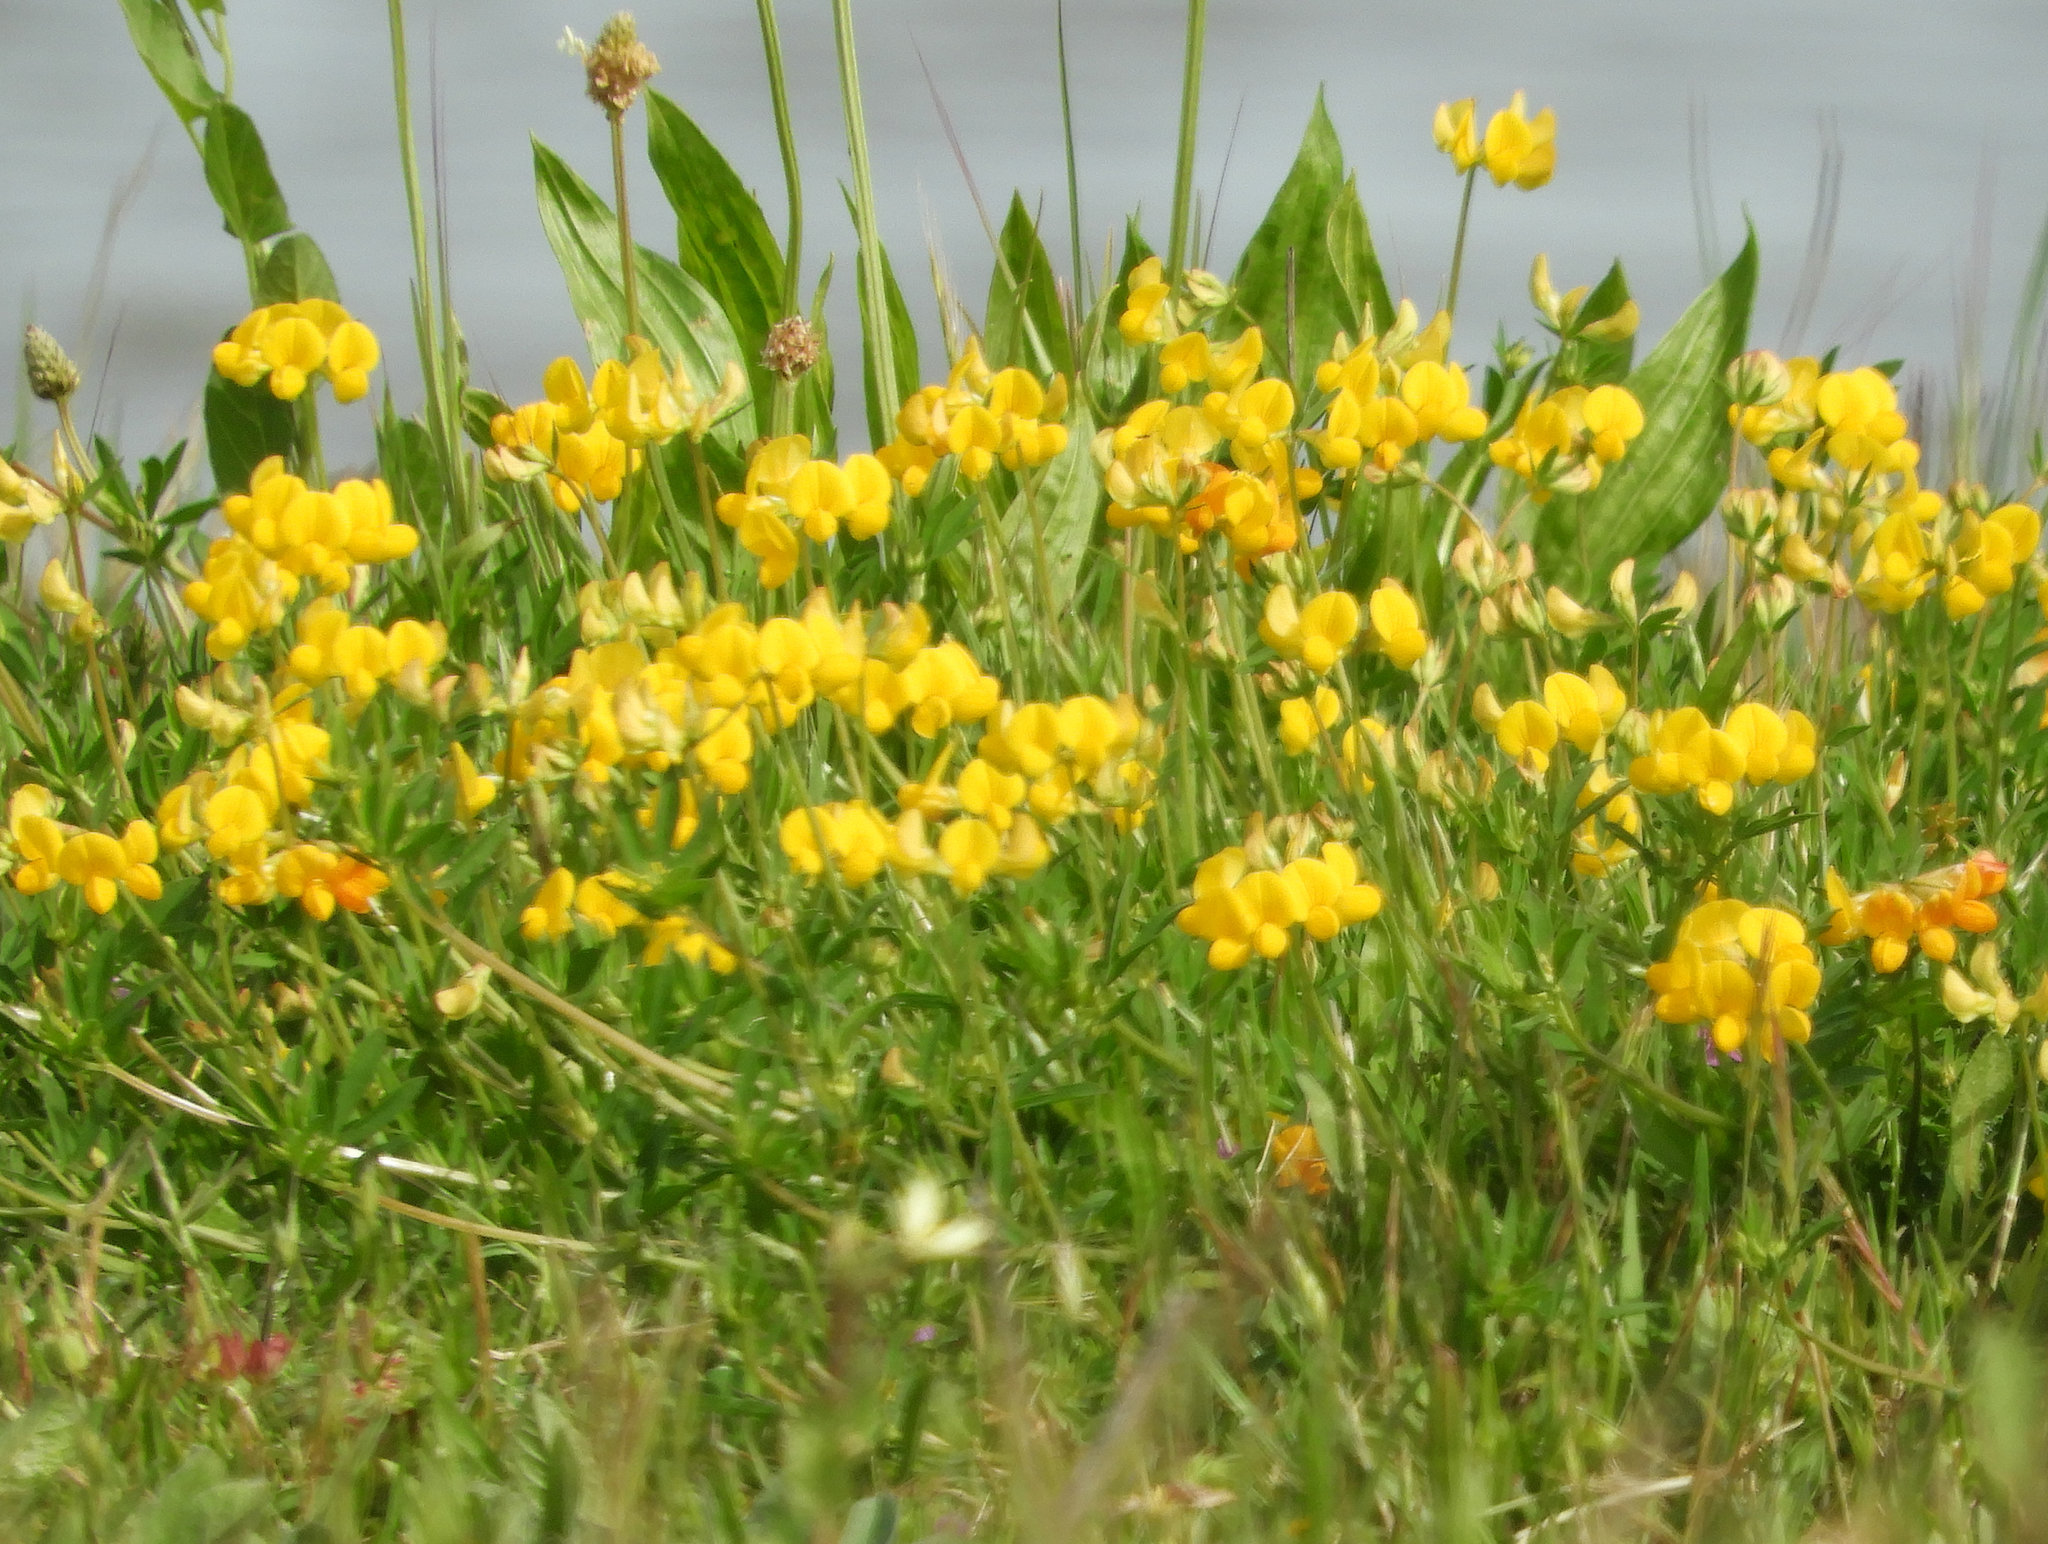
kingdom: Plantae
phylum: Tracheophyta
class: Magnoliopsida
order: Fabales
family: Fabaceae
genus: Lotus
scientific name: Lotus corniculatus
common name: Common bird's-foot-trefoil
